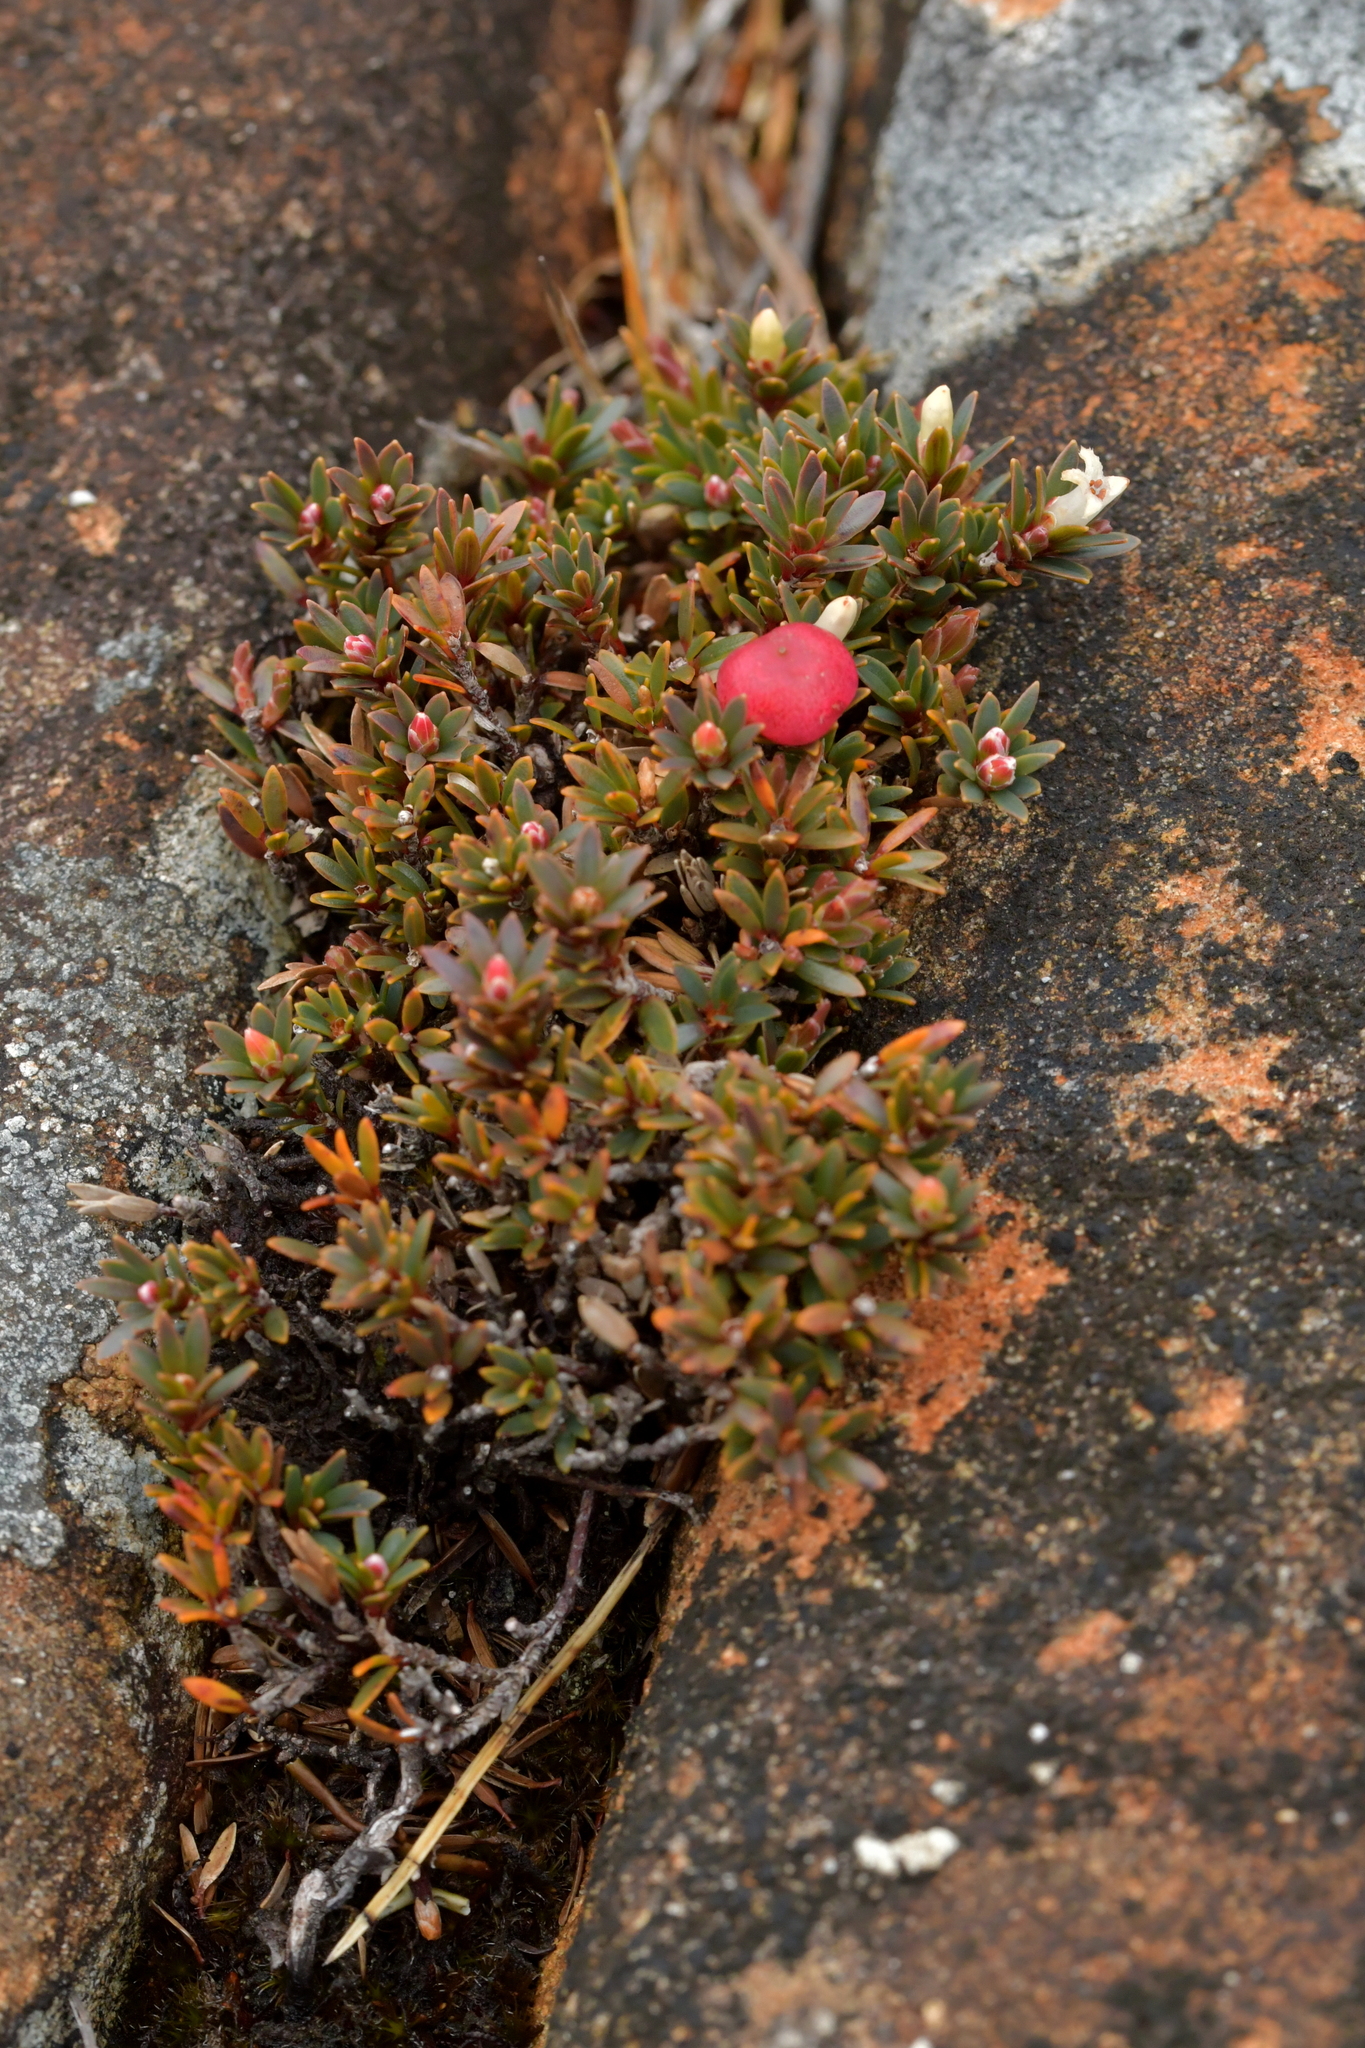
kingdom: Plantae
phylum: Tracheophyta
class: Magnoliopsida
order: Ericales
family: Ericaceae
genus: Pentachondra
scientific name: Pentachondra pumila
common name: Carpet-heath
